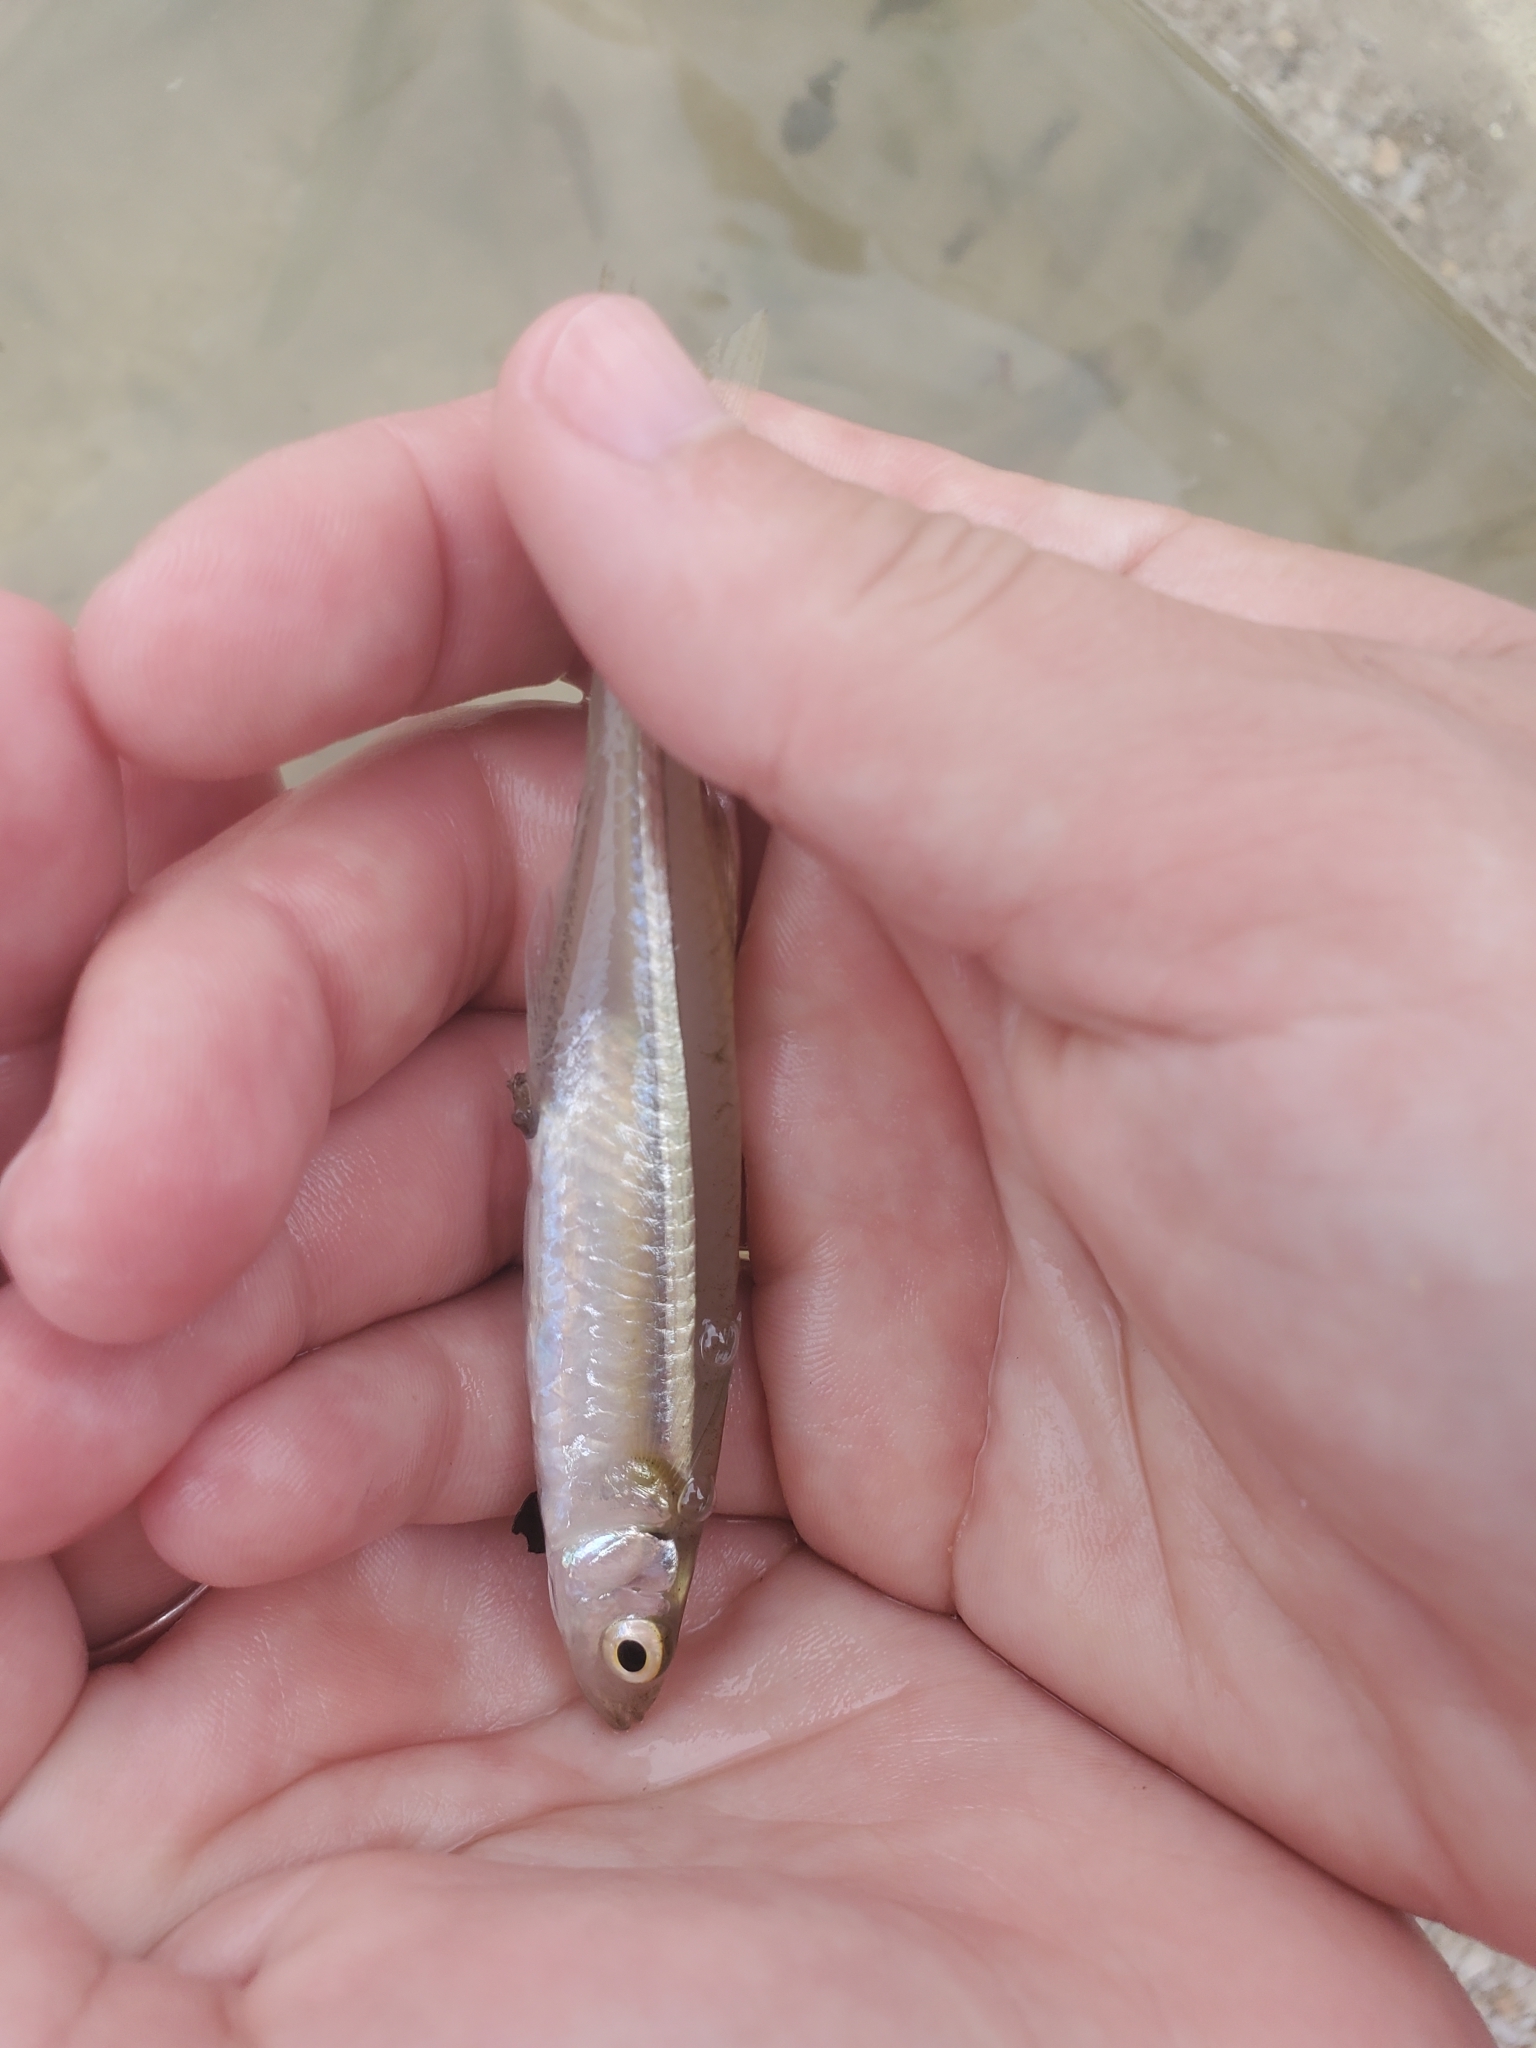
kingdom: Animalia
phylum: Chordata
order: Atheriniformes
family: Atherinopsidae
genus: Menidia
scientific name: Menidia menidia
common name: Atlantic silverside
